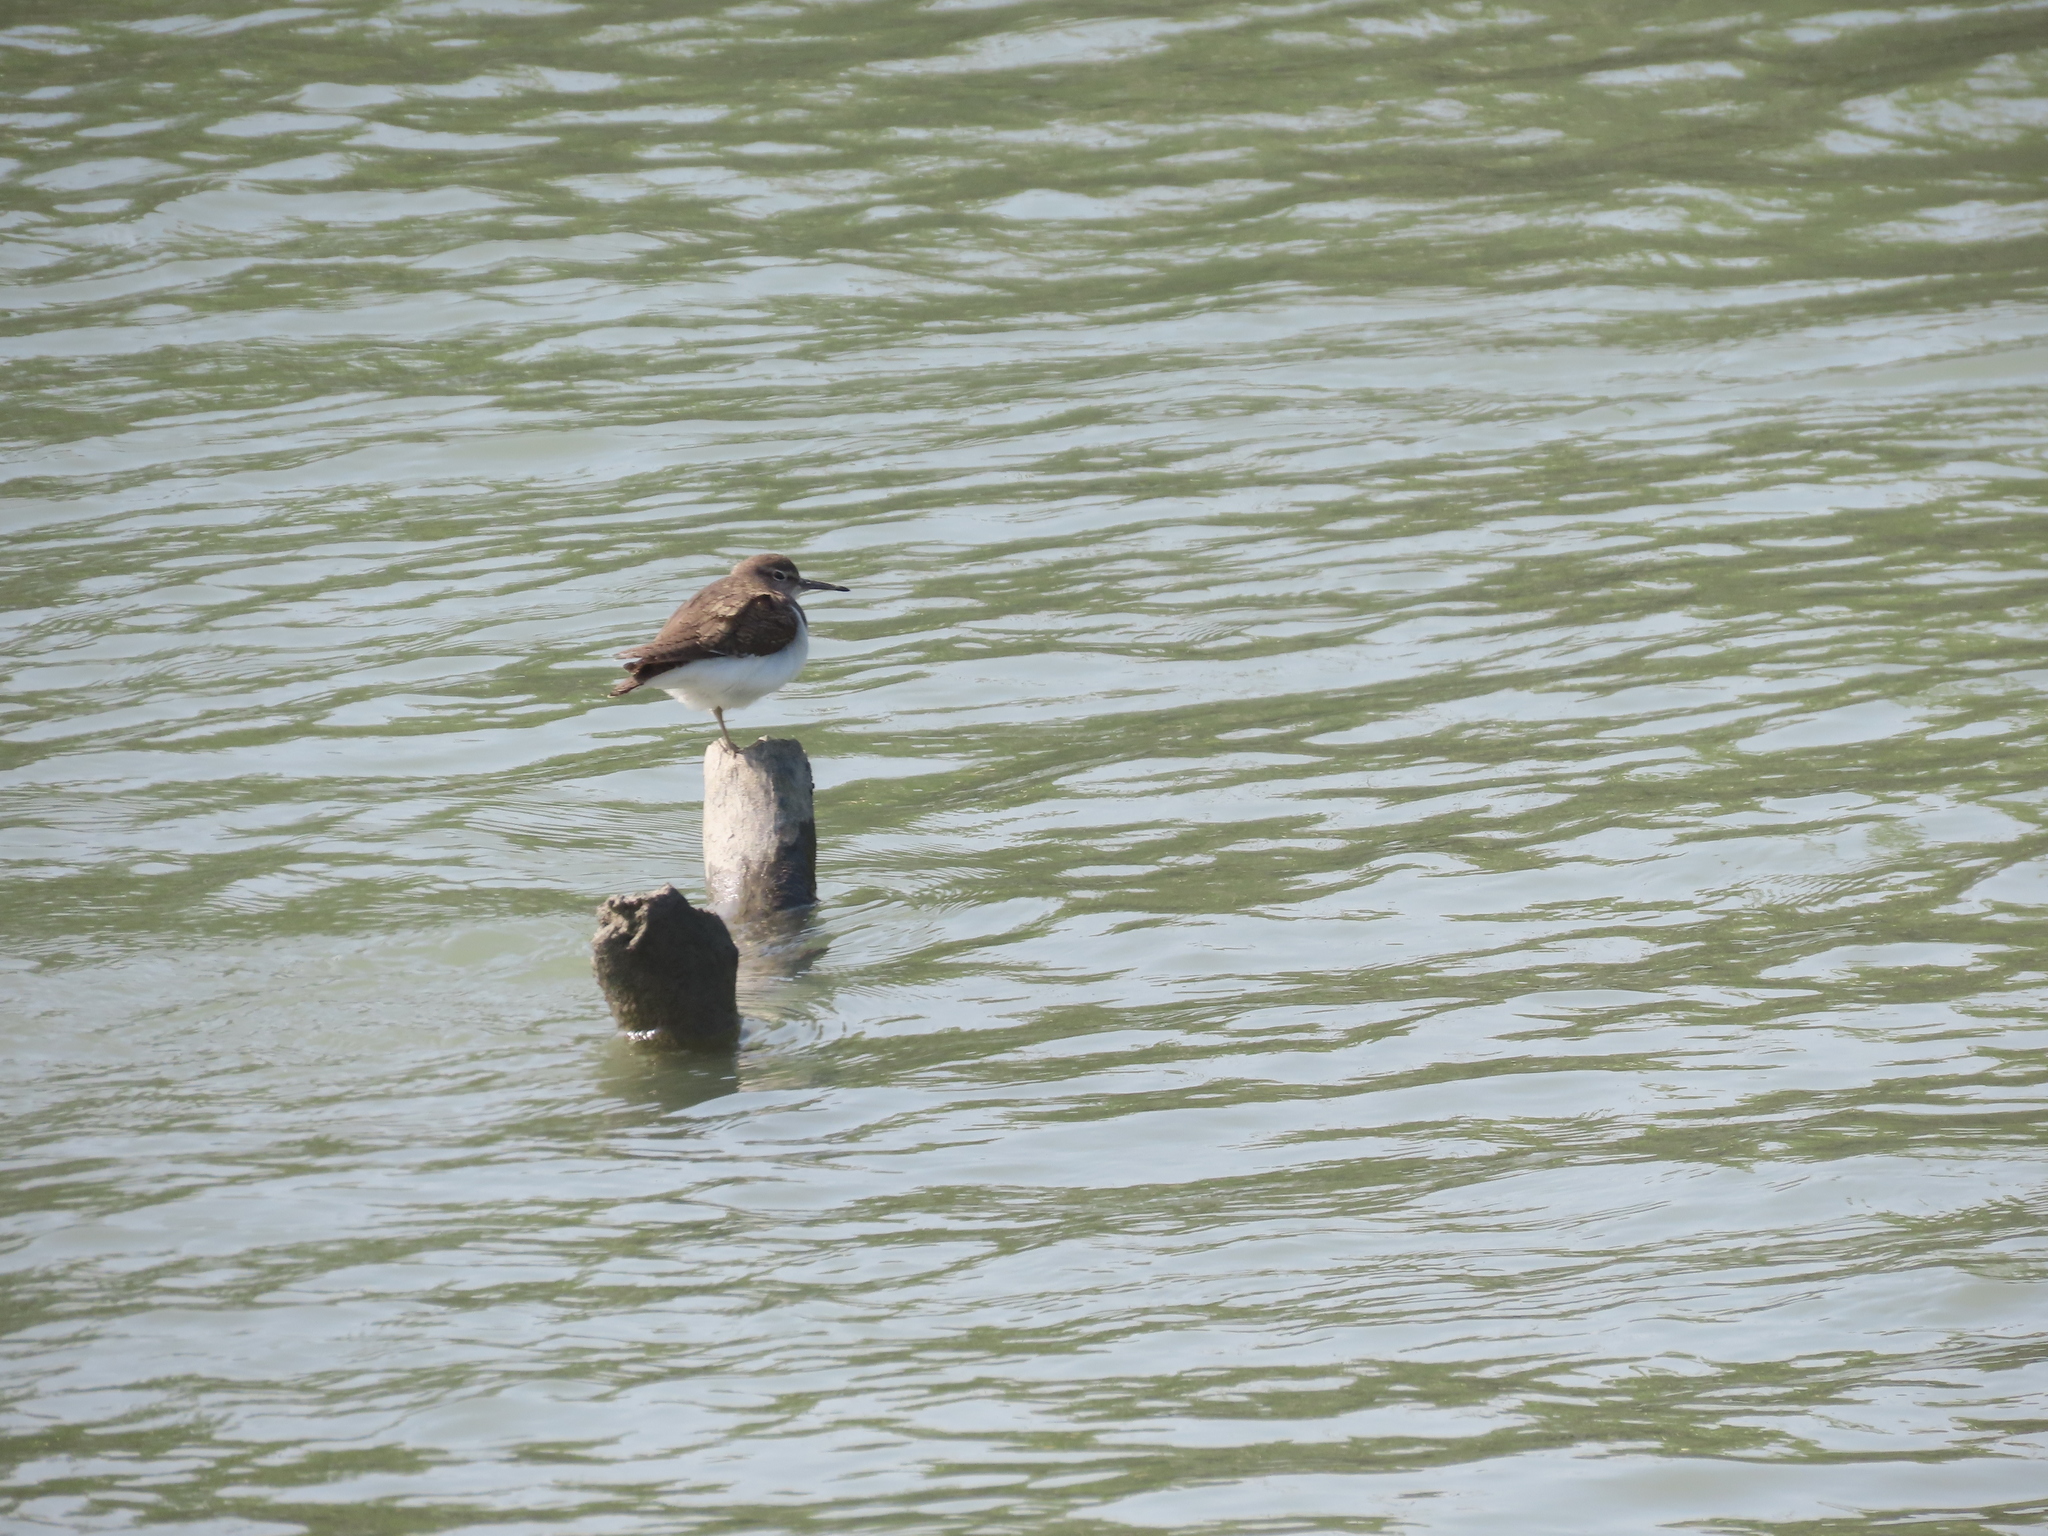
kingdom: Animalia
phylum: Chordata
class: Aves
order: Charadriiformes
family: Scolopacidae
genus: Actitis
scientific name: Actitis hypoleucos
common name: Common sandpiper
